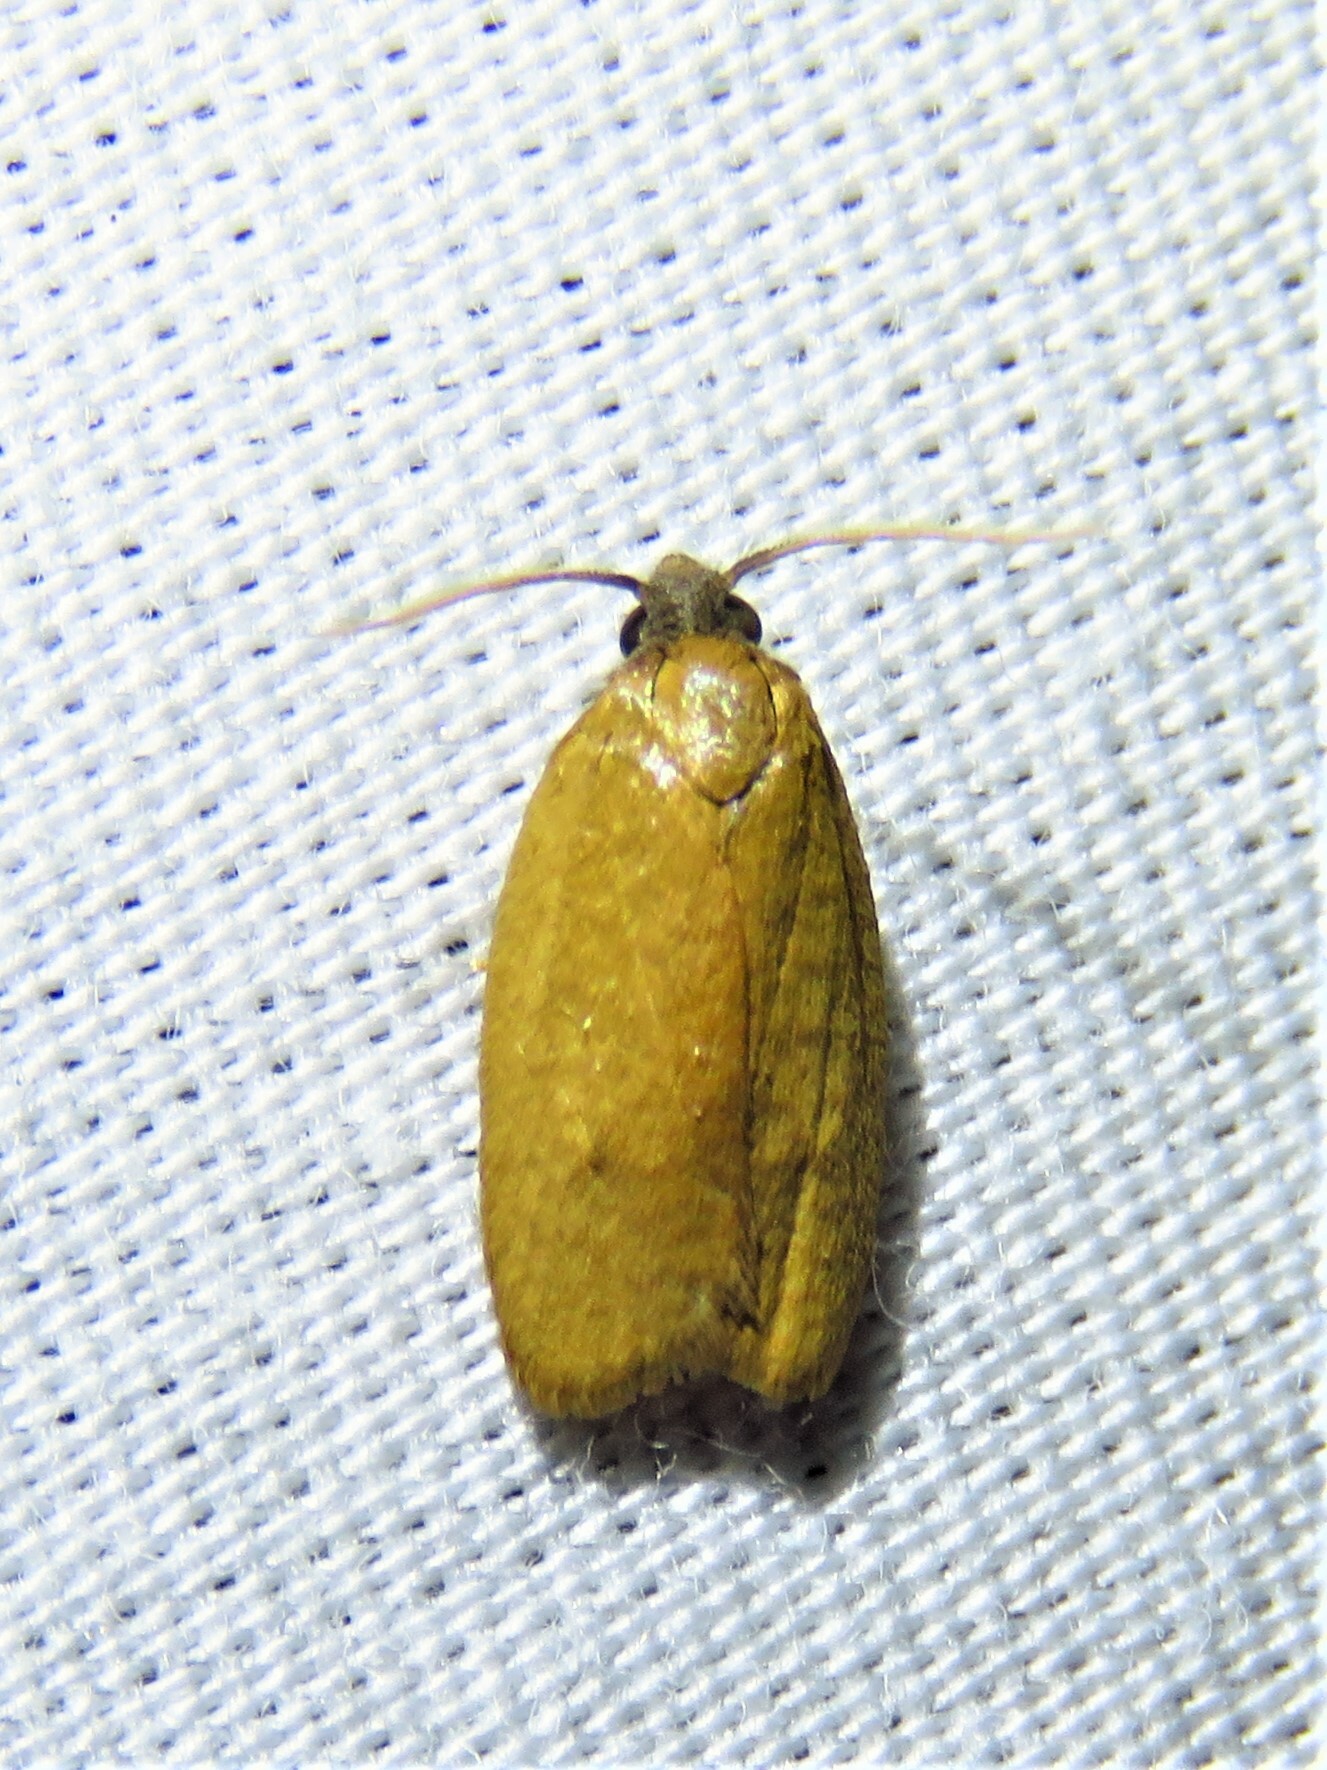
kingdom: Animalia
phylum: Arthropoda
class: Insecta
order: Lepidoptera
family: Tortricidae
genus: Sparganothis
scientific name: Sparganothis demissana
